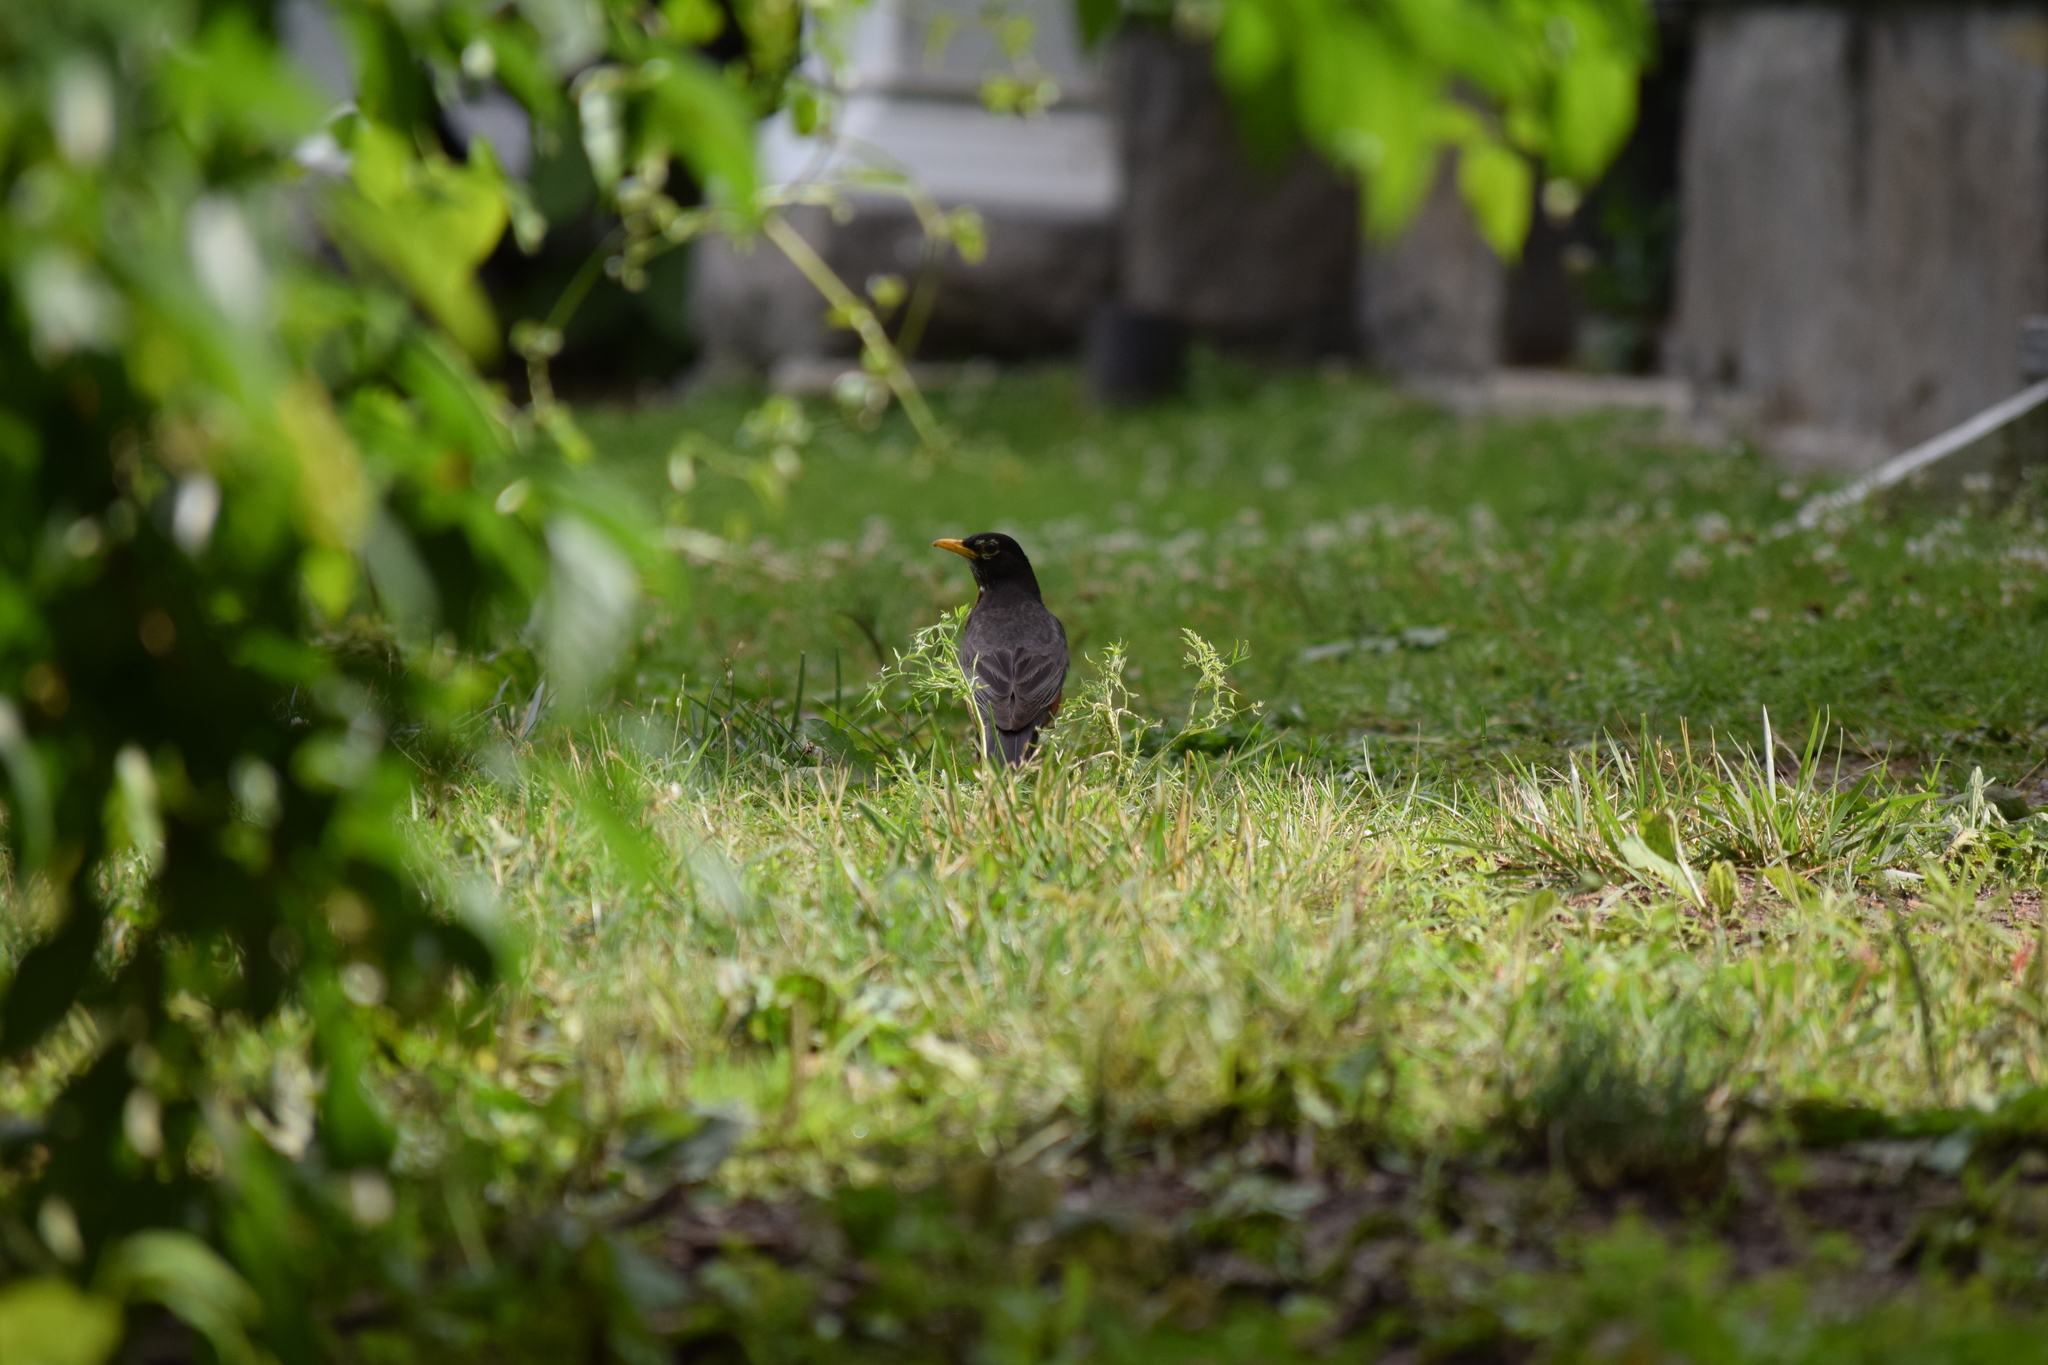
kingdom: Animalia
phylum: Chordata
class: Aves
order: Passeriformes
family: Turdidae
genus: Turdus
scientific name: Turdus migratorius
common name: American robin
